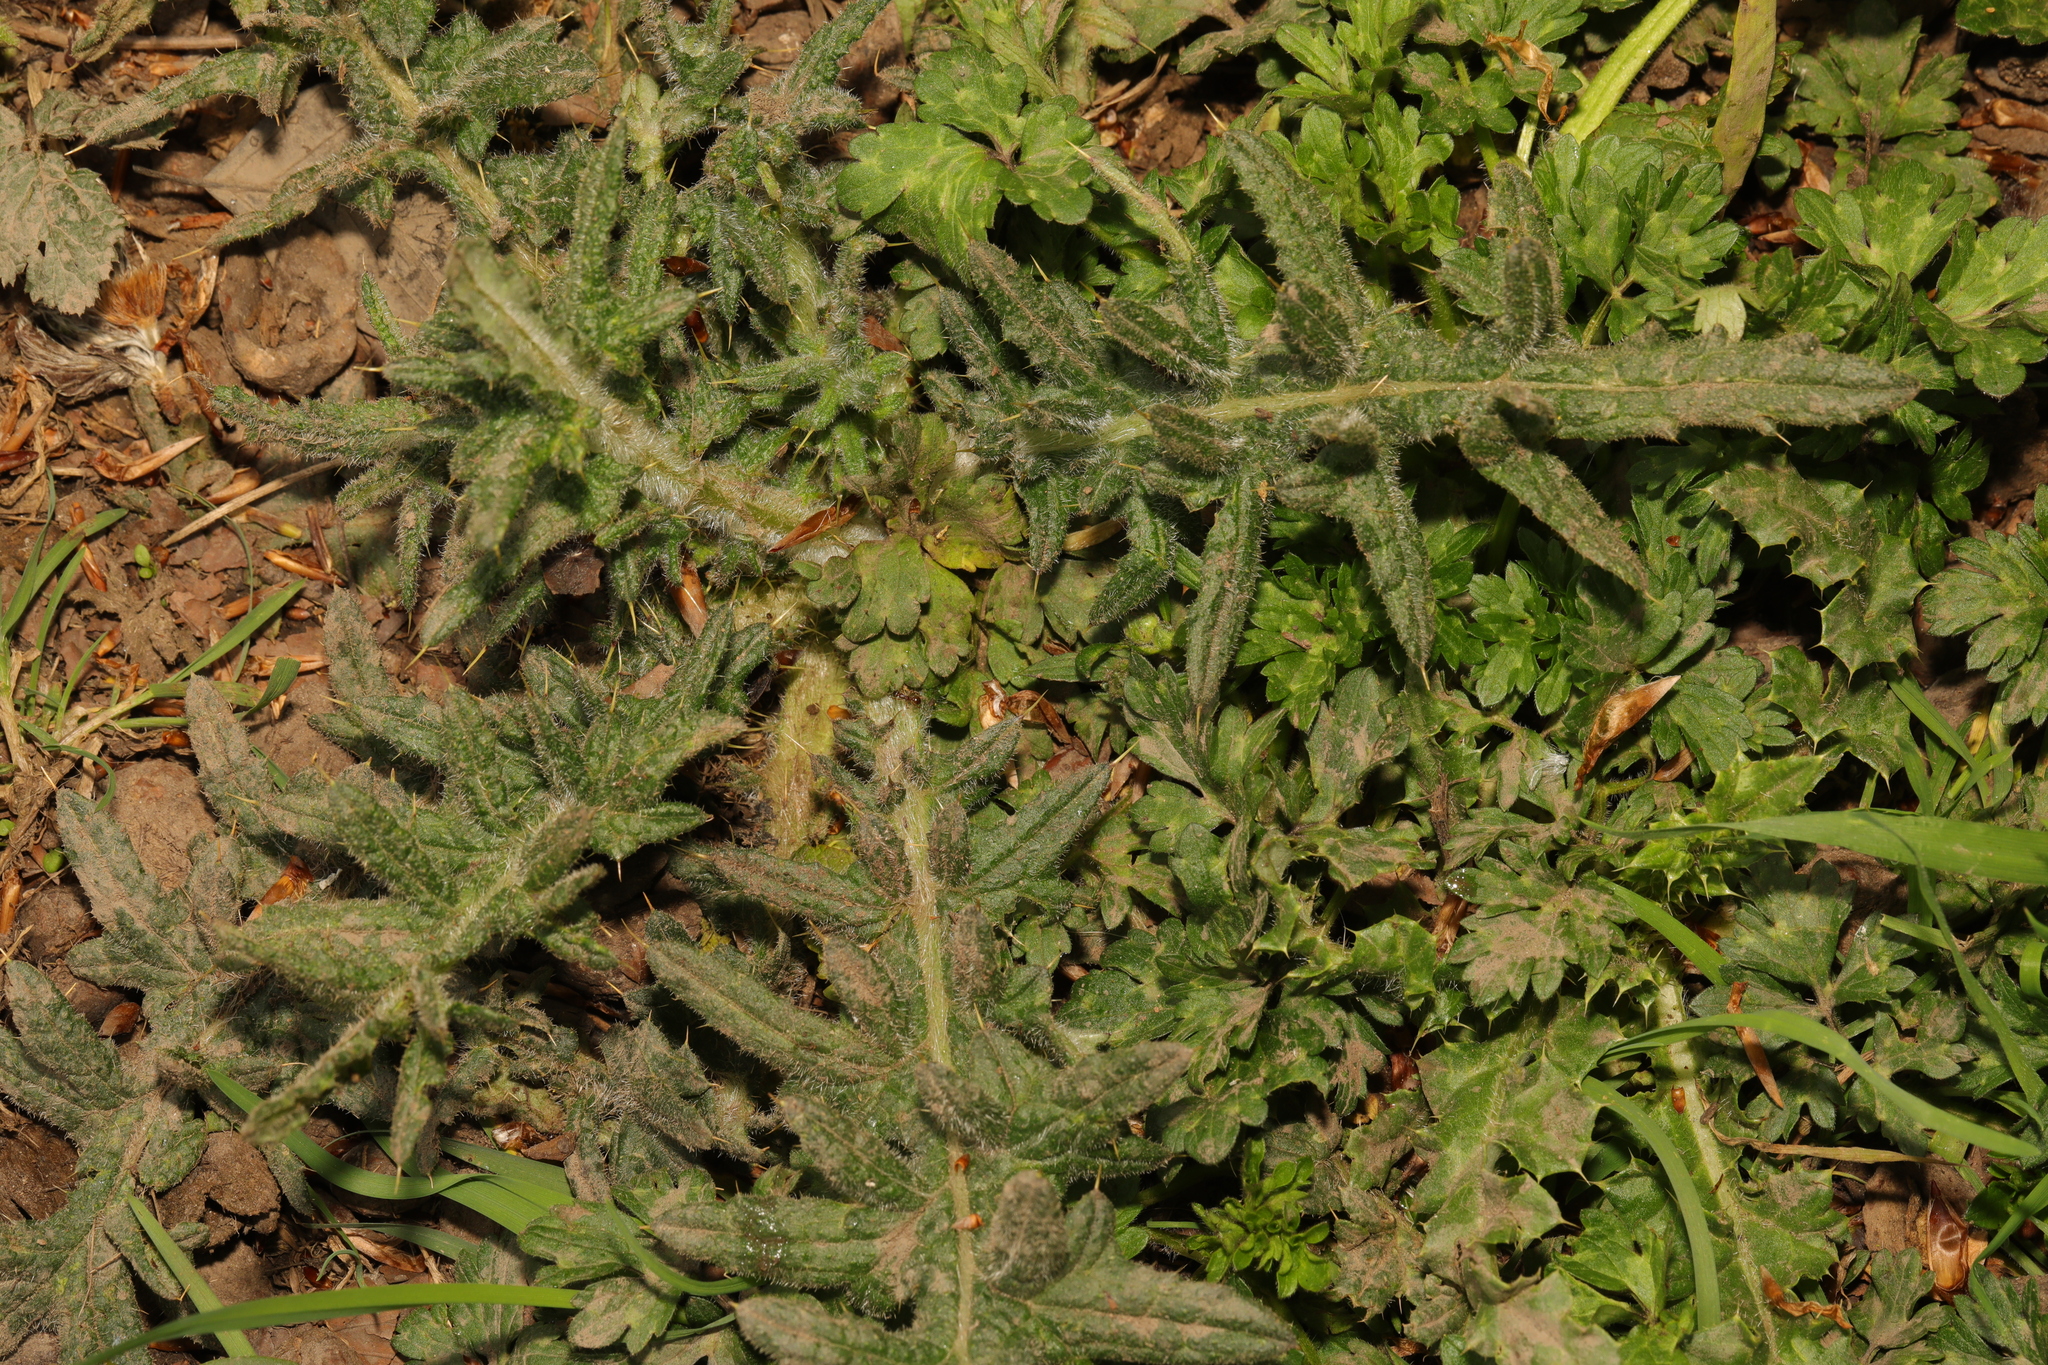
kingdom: Plantae
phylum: Tracheophyta
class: Magnoliopsida
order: Asterales
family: Asteraceae
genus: Cirsium
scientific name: Cirsium vulgare
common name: Bull thistle
